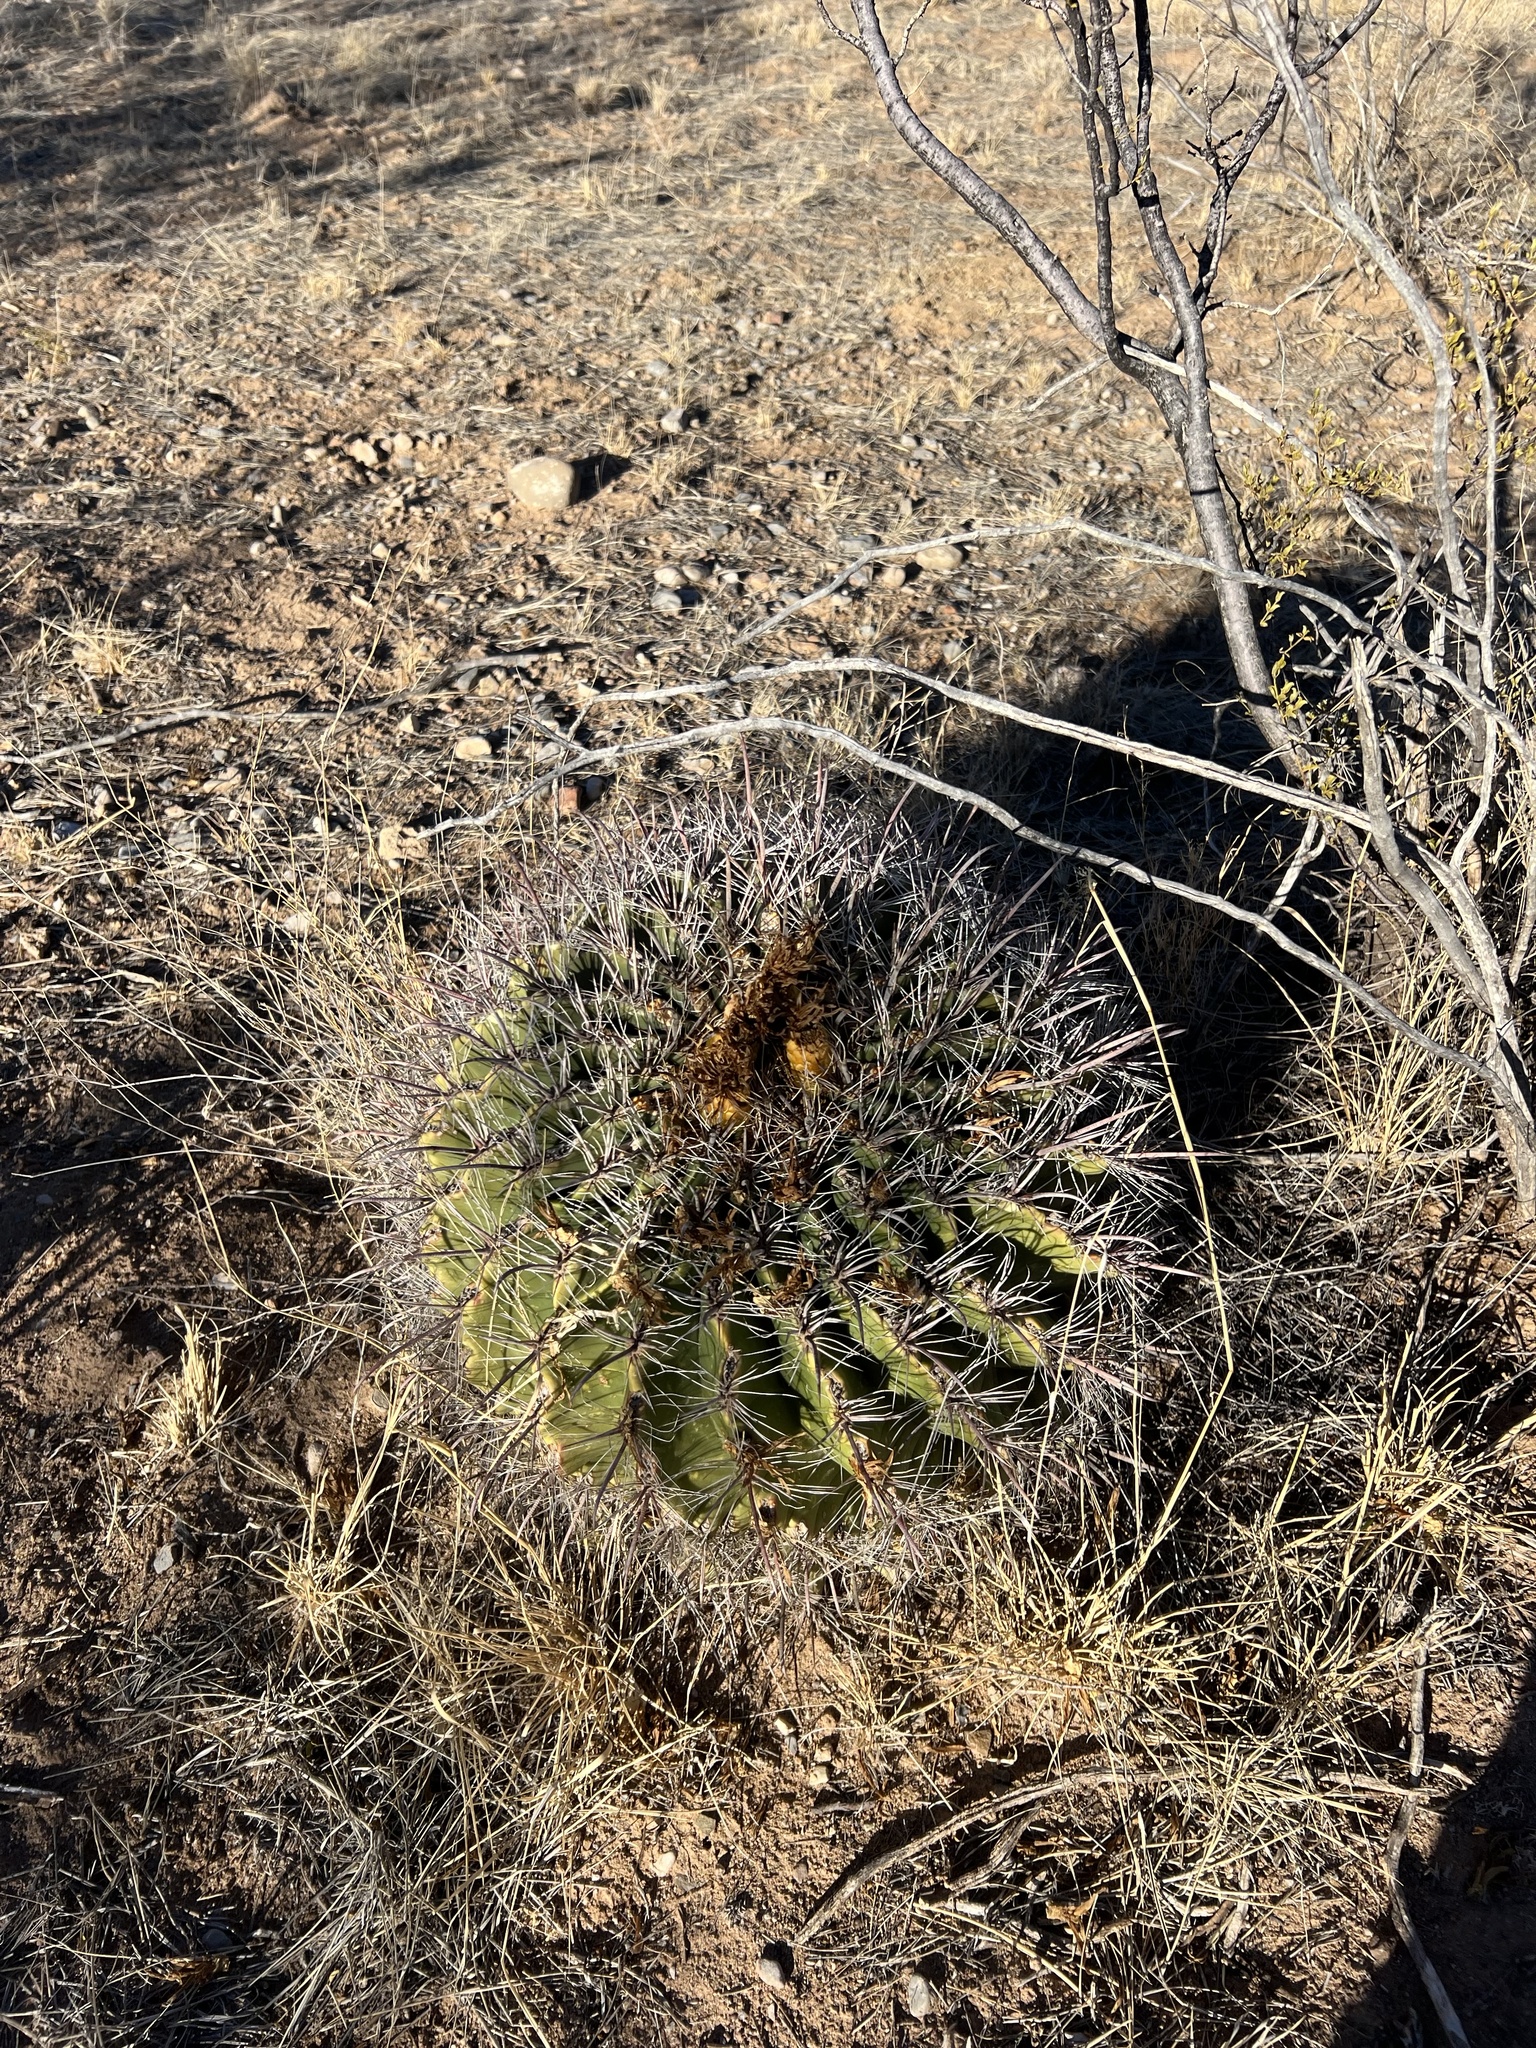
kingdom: Plantae
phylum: Tracheophyta
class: Magnoliopsida
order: Caryophyllales
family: Cactaceae
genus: Ferocactus
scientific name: Ferocactus wislizeni
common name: Candy barrel cactus
